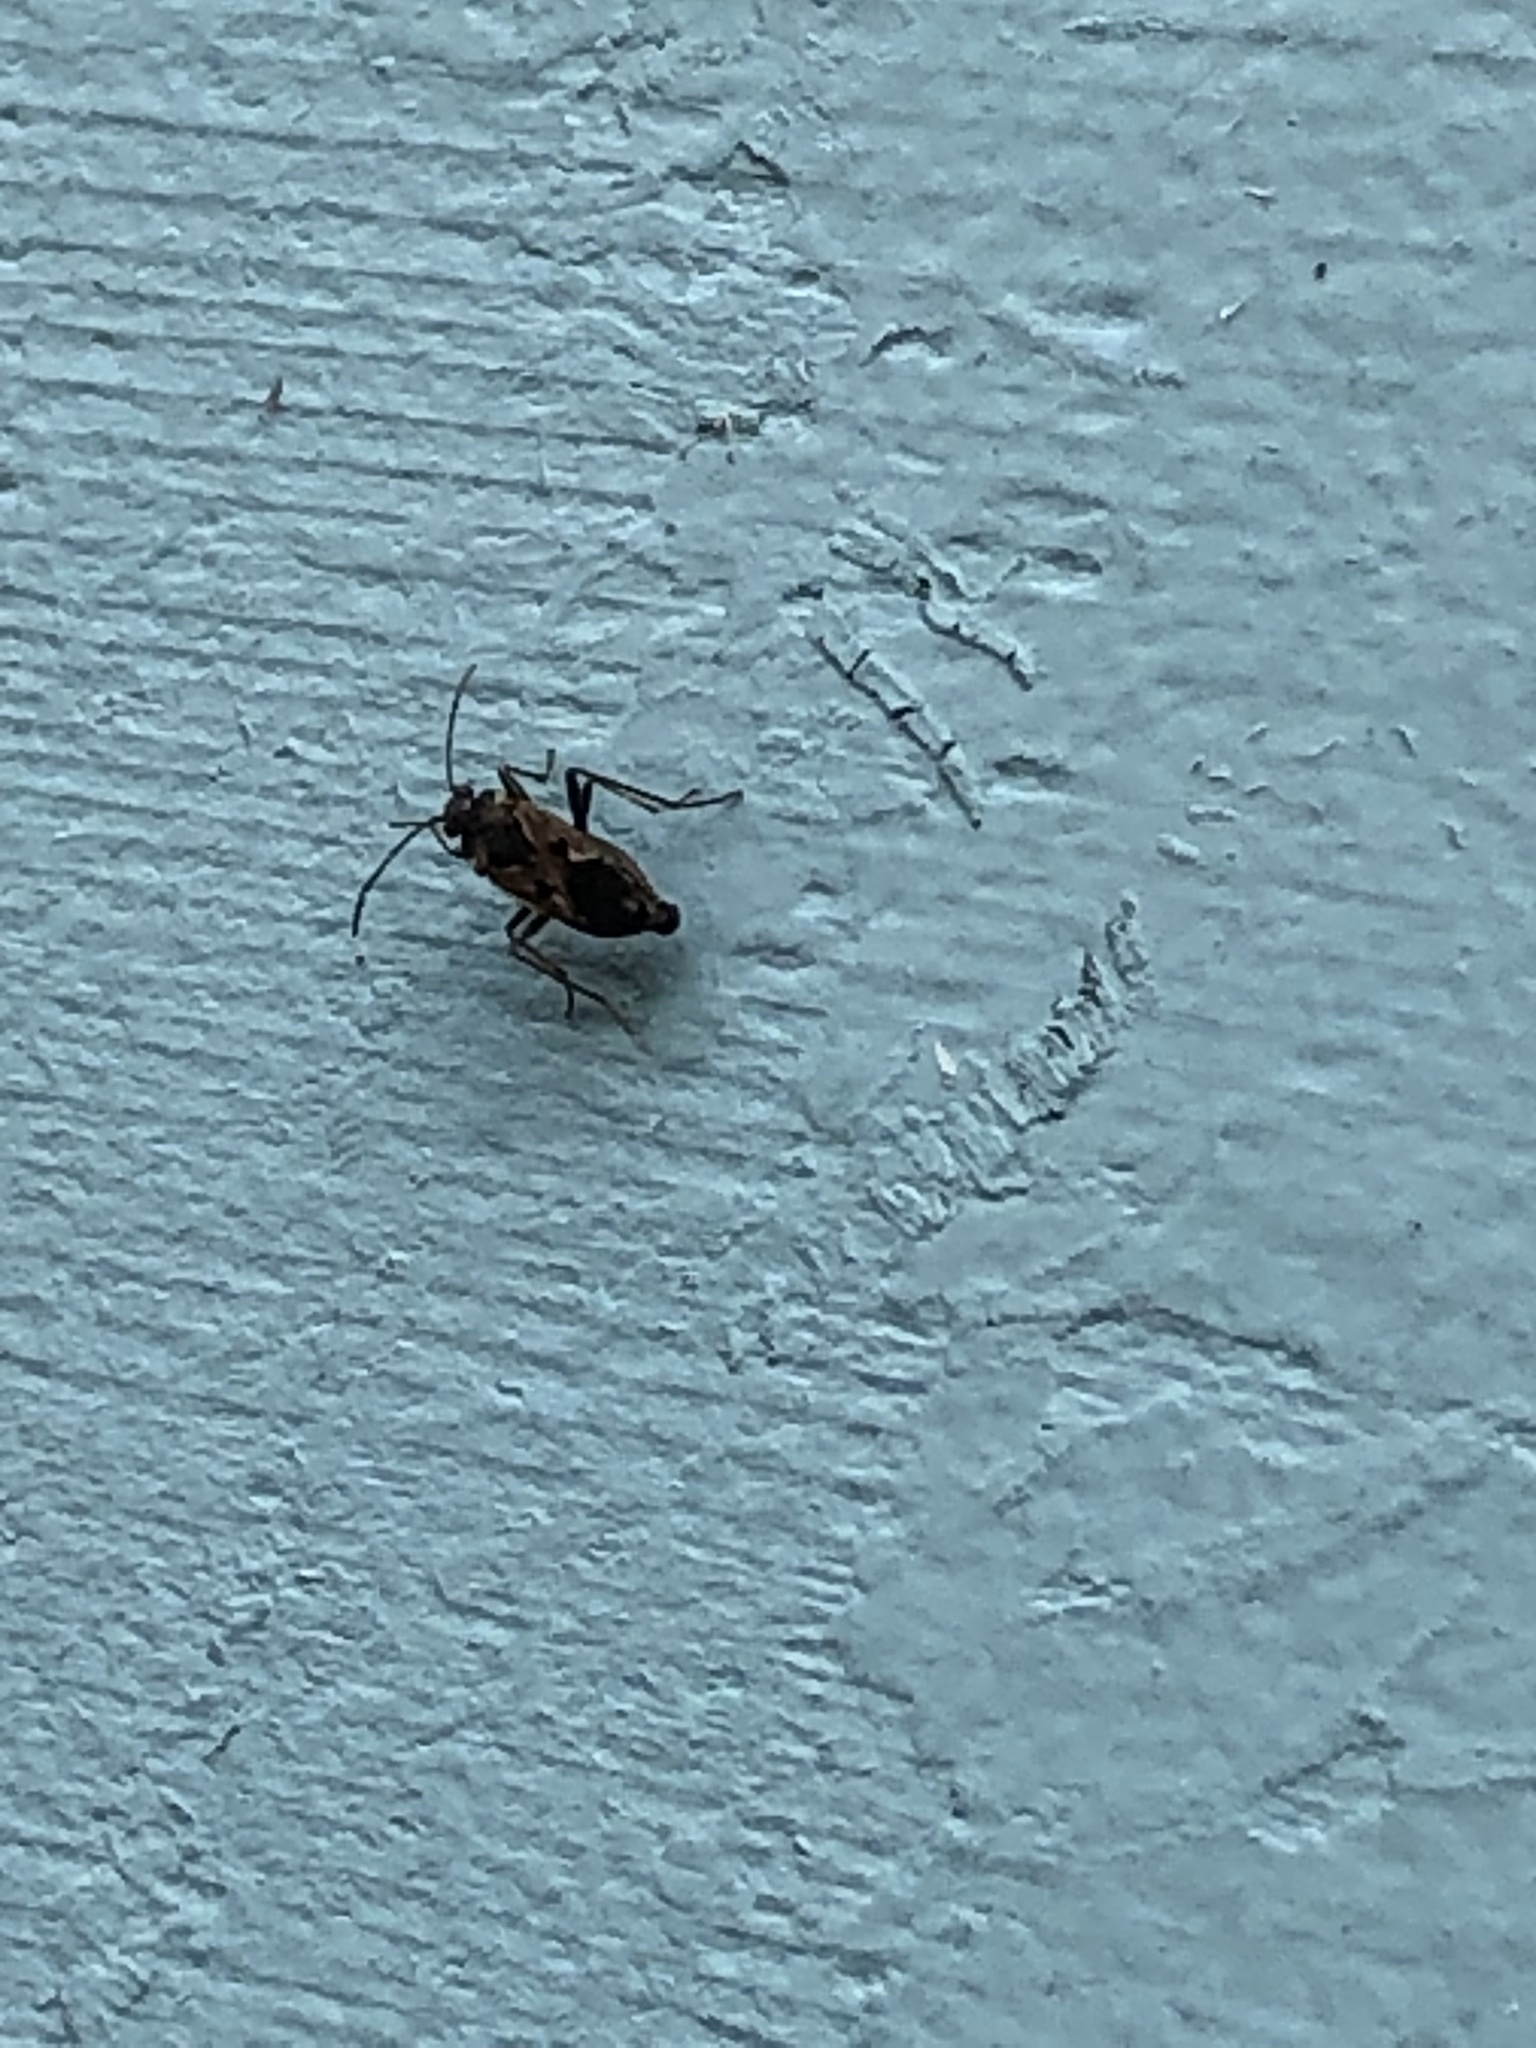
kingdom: Animalia
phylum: Arthropoda
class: Insecta
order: Hemiptera
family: Rhyparochromidae
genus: Rhyparochromus
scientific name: Rhyparochromus vulgaris
